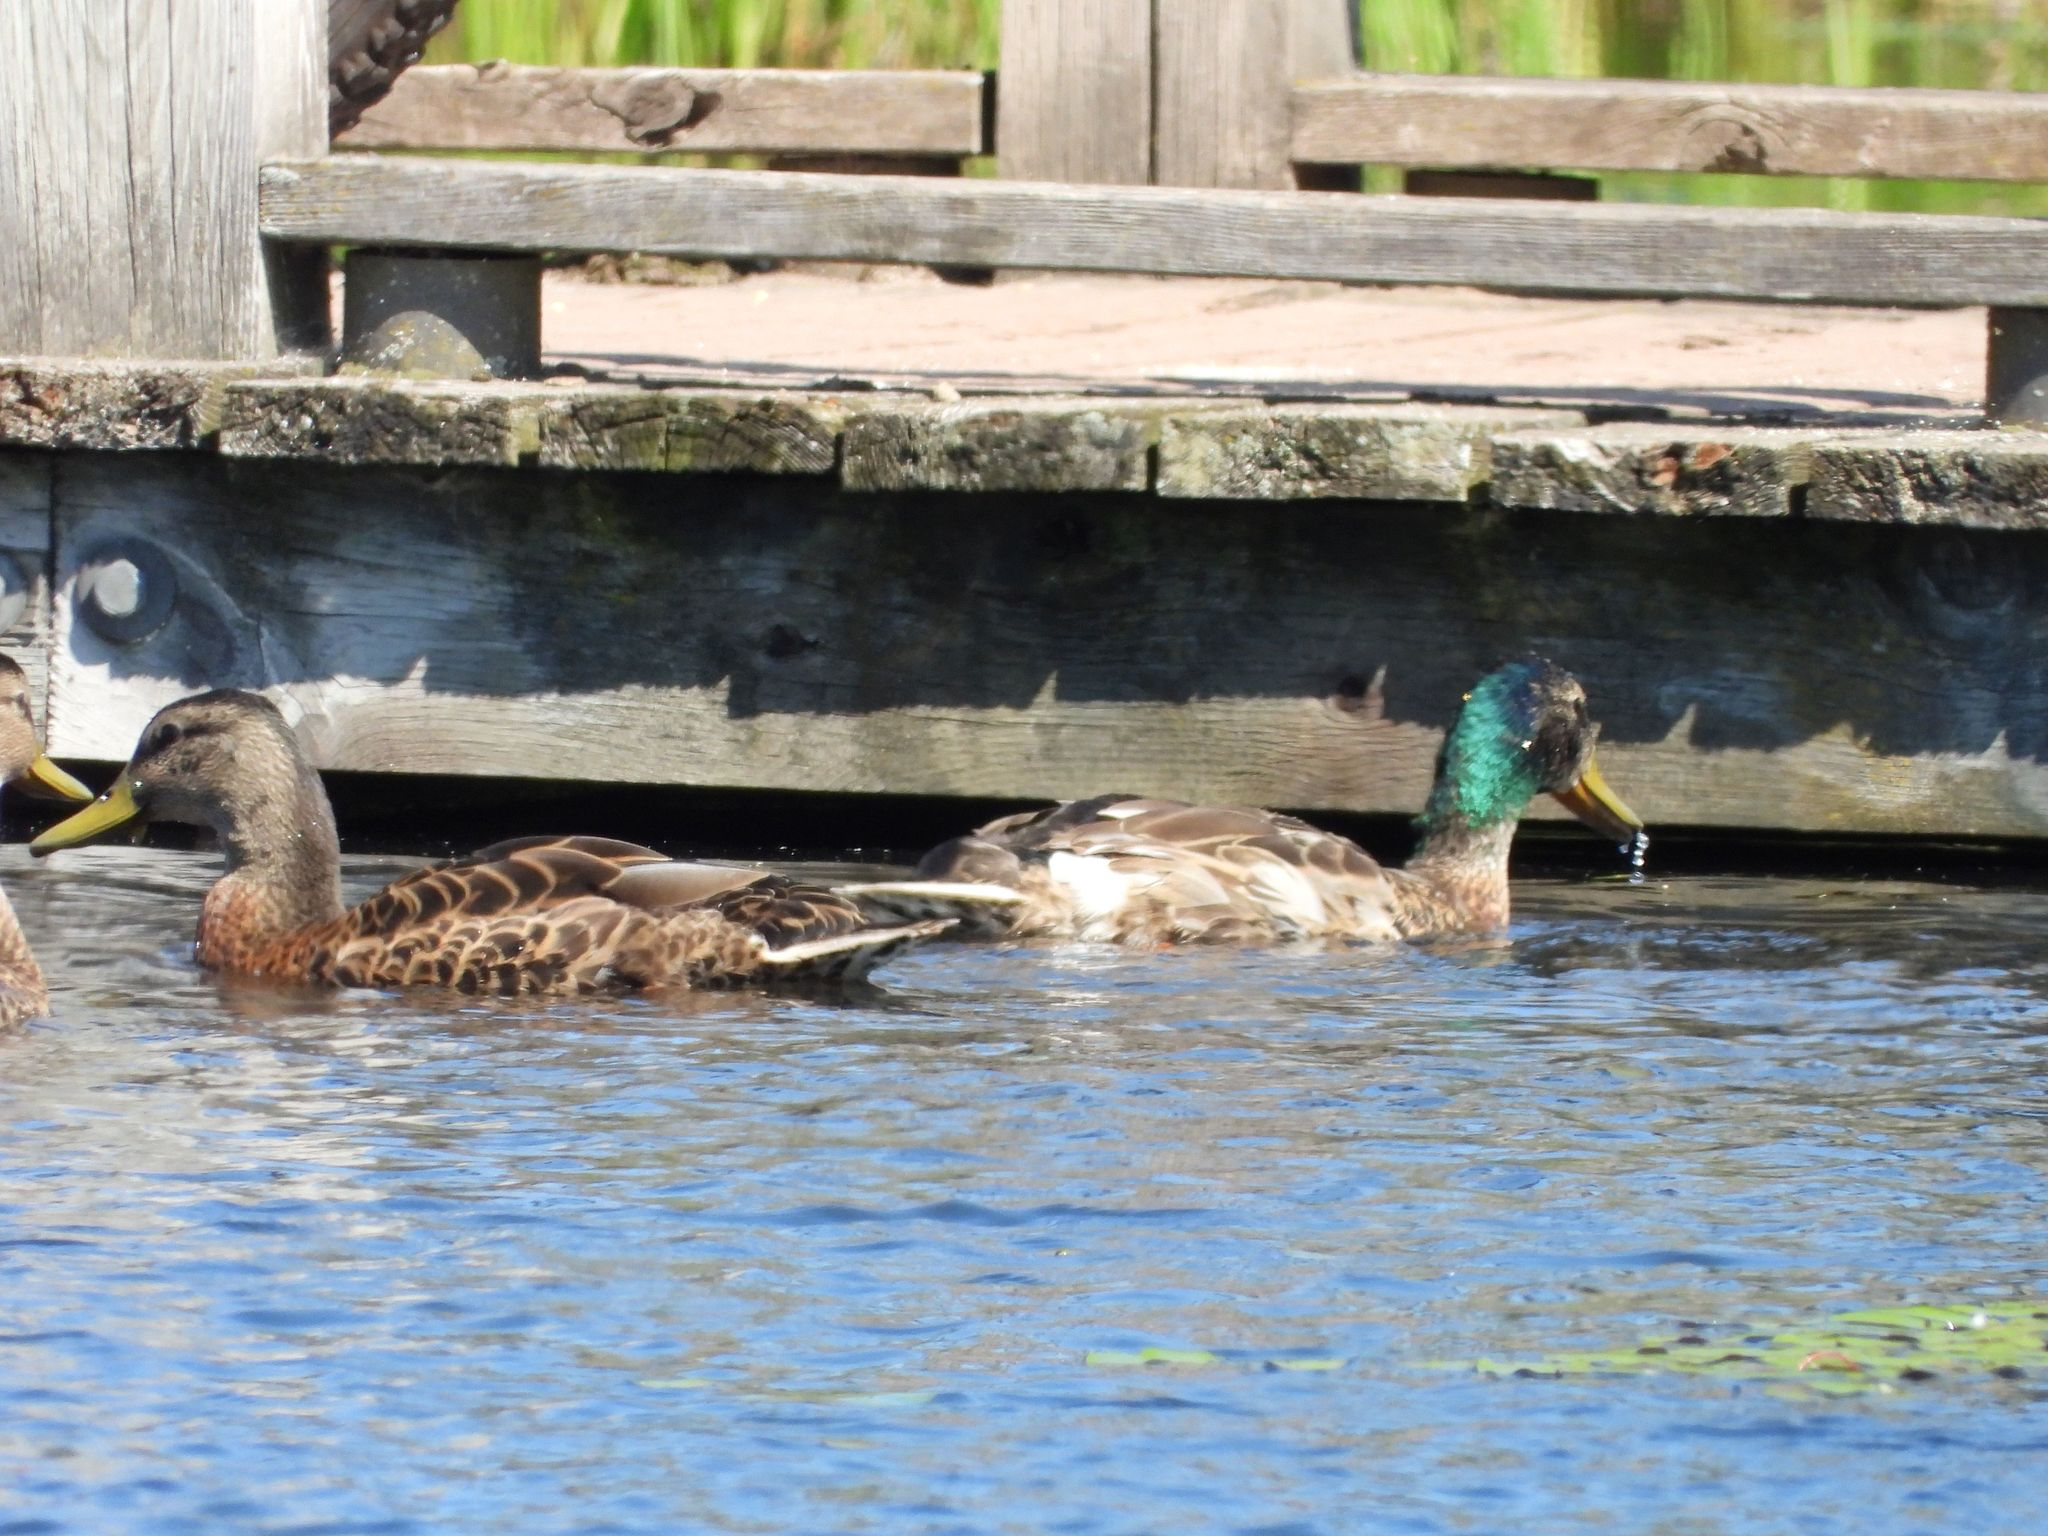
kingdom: Animalia
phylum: Chordata
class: Aves
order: Anseriformes
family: Anatidae
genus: Anas
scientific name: Anas platyrhynchos
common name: Mallard
